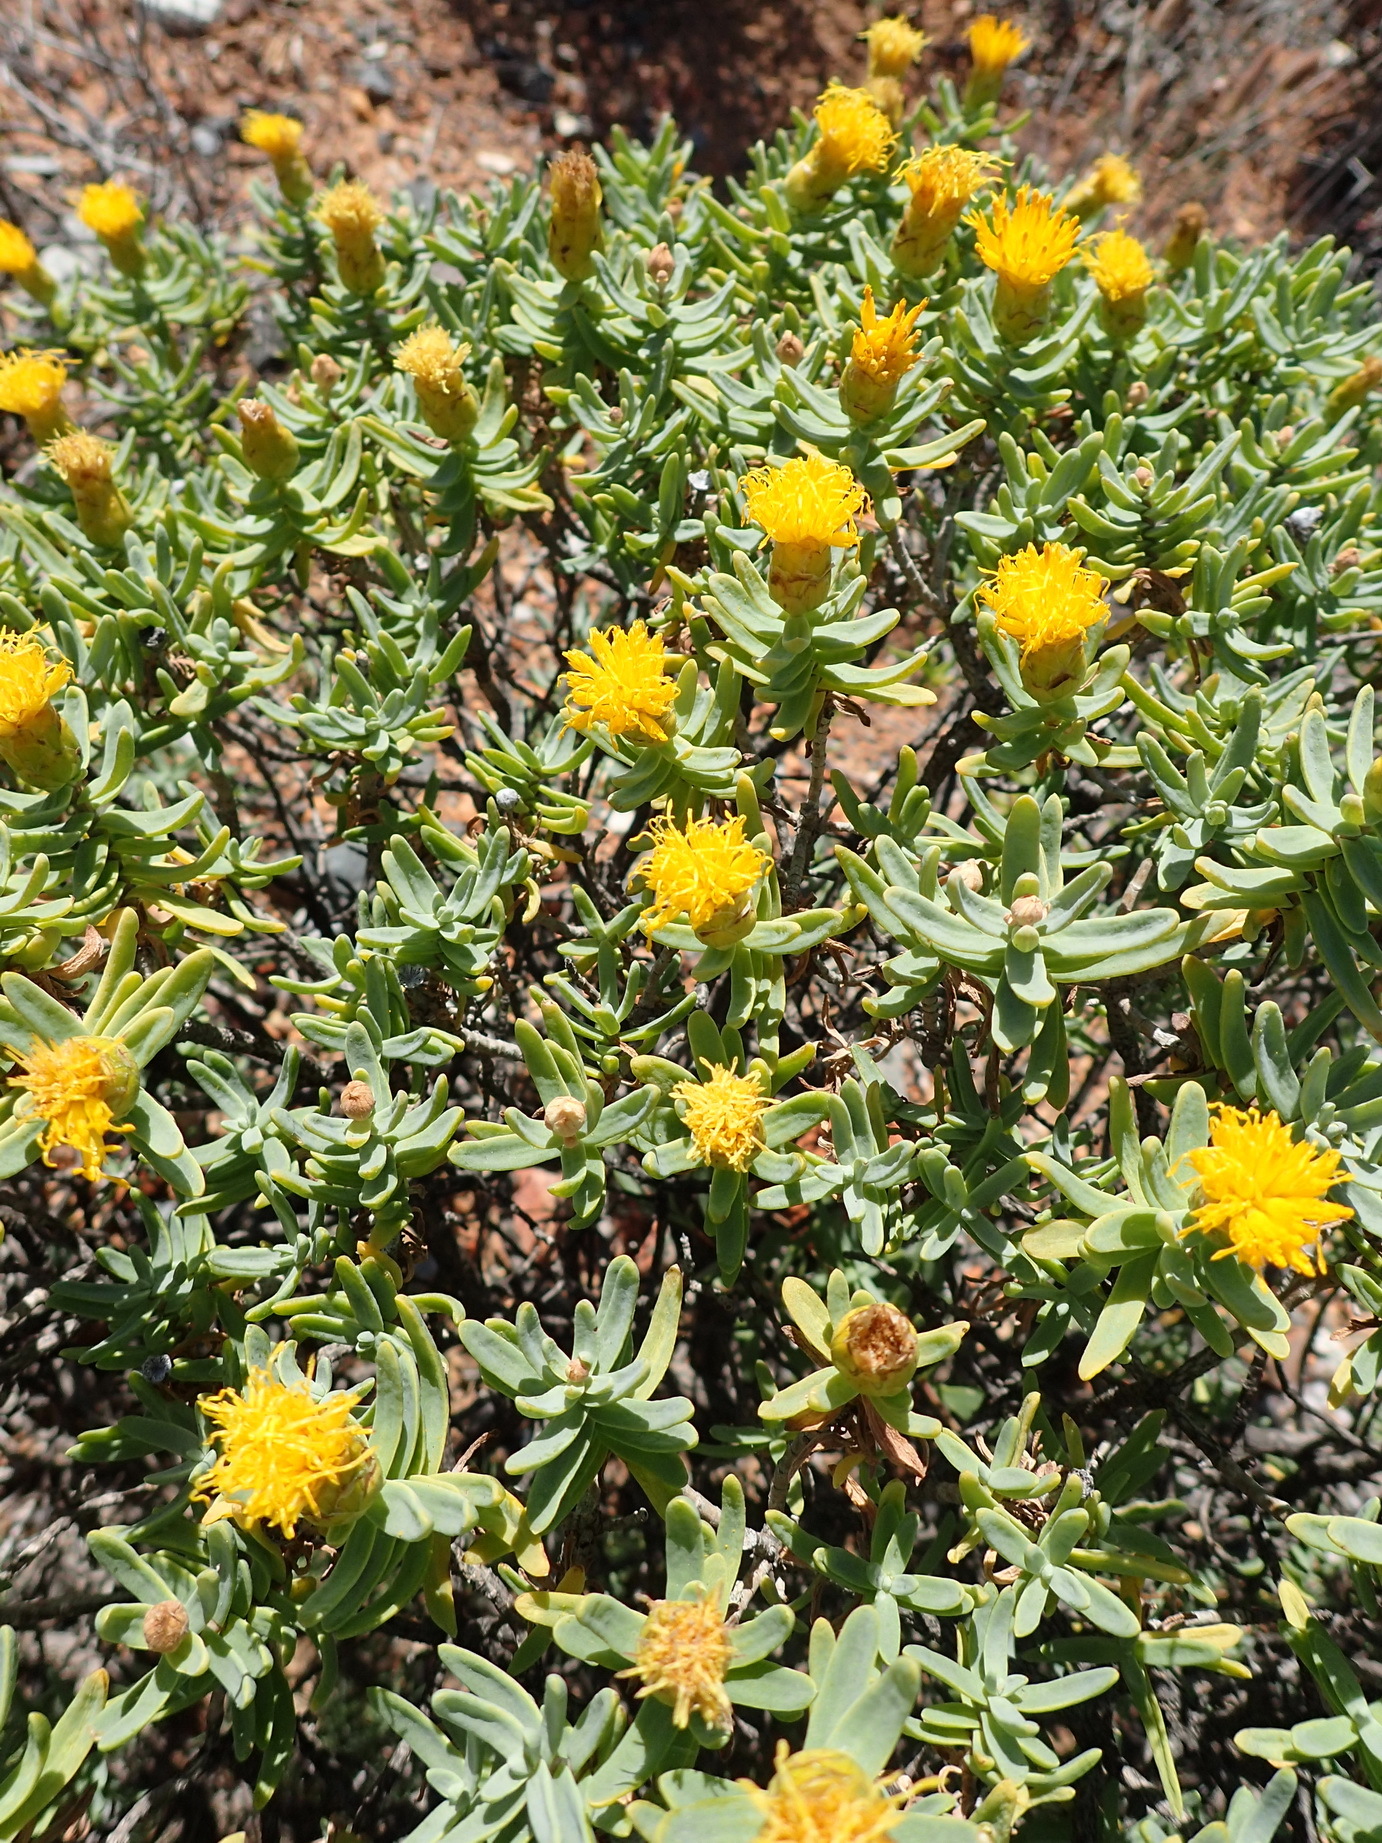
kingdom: Plantae
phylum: Tracheophyta
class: Magnoliopsida
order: Asterales
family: Asteraceae
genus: Pteronia
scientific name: Pteronia glabrata
